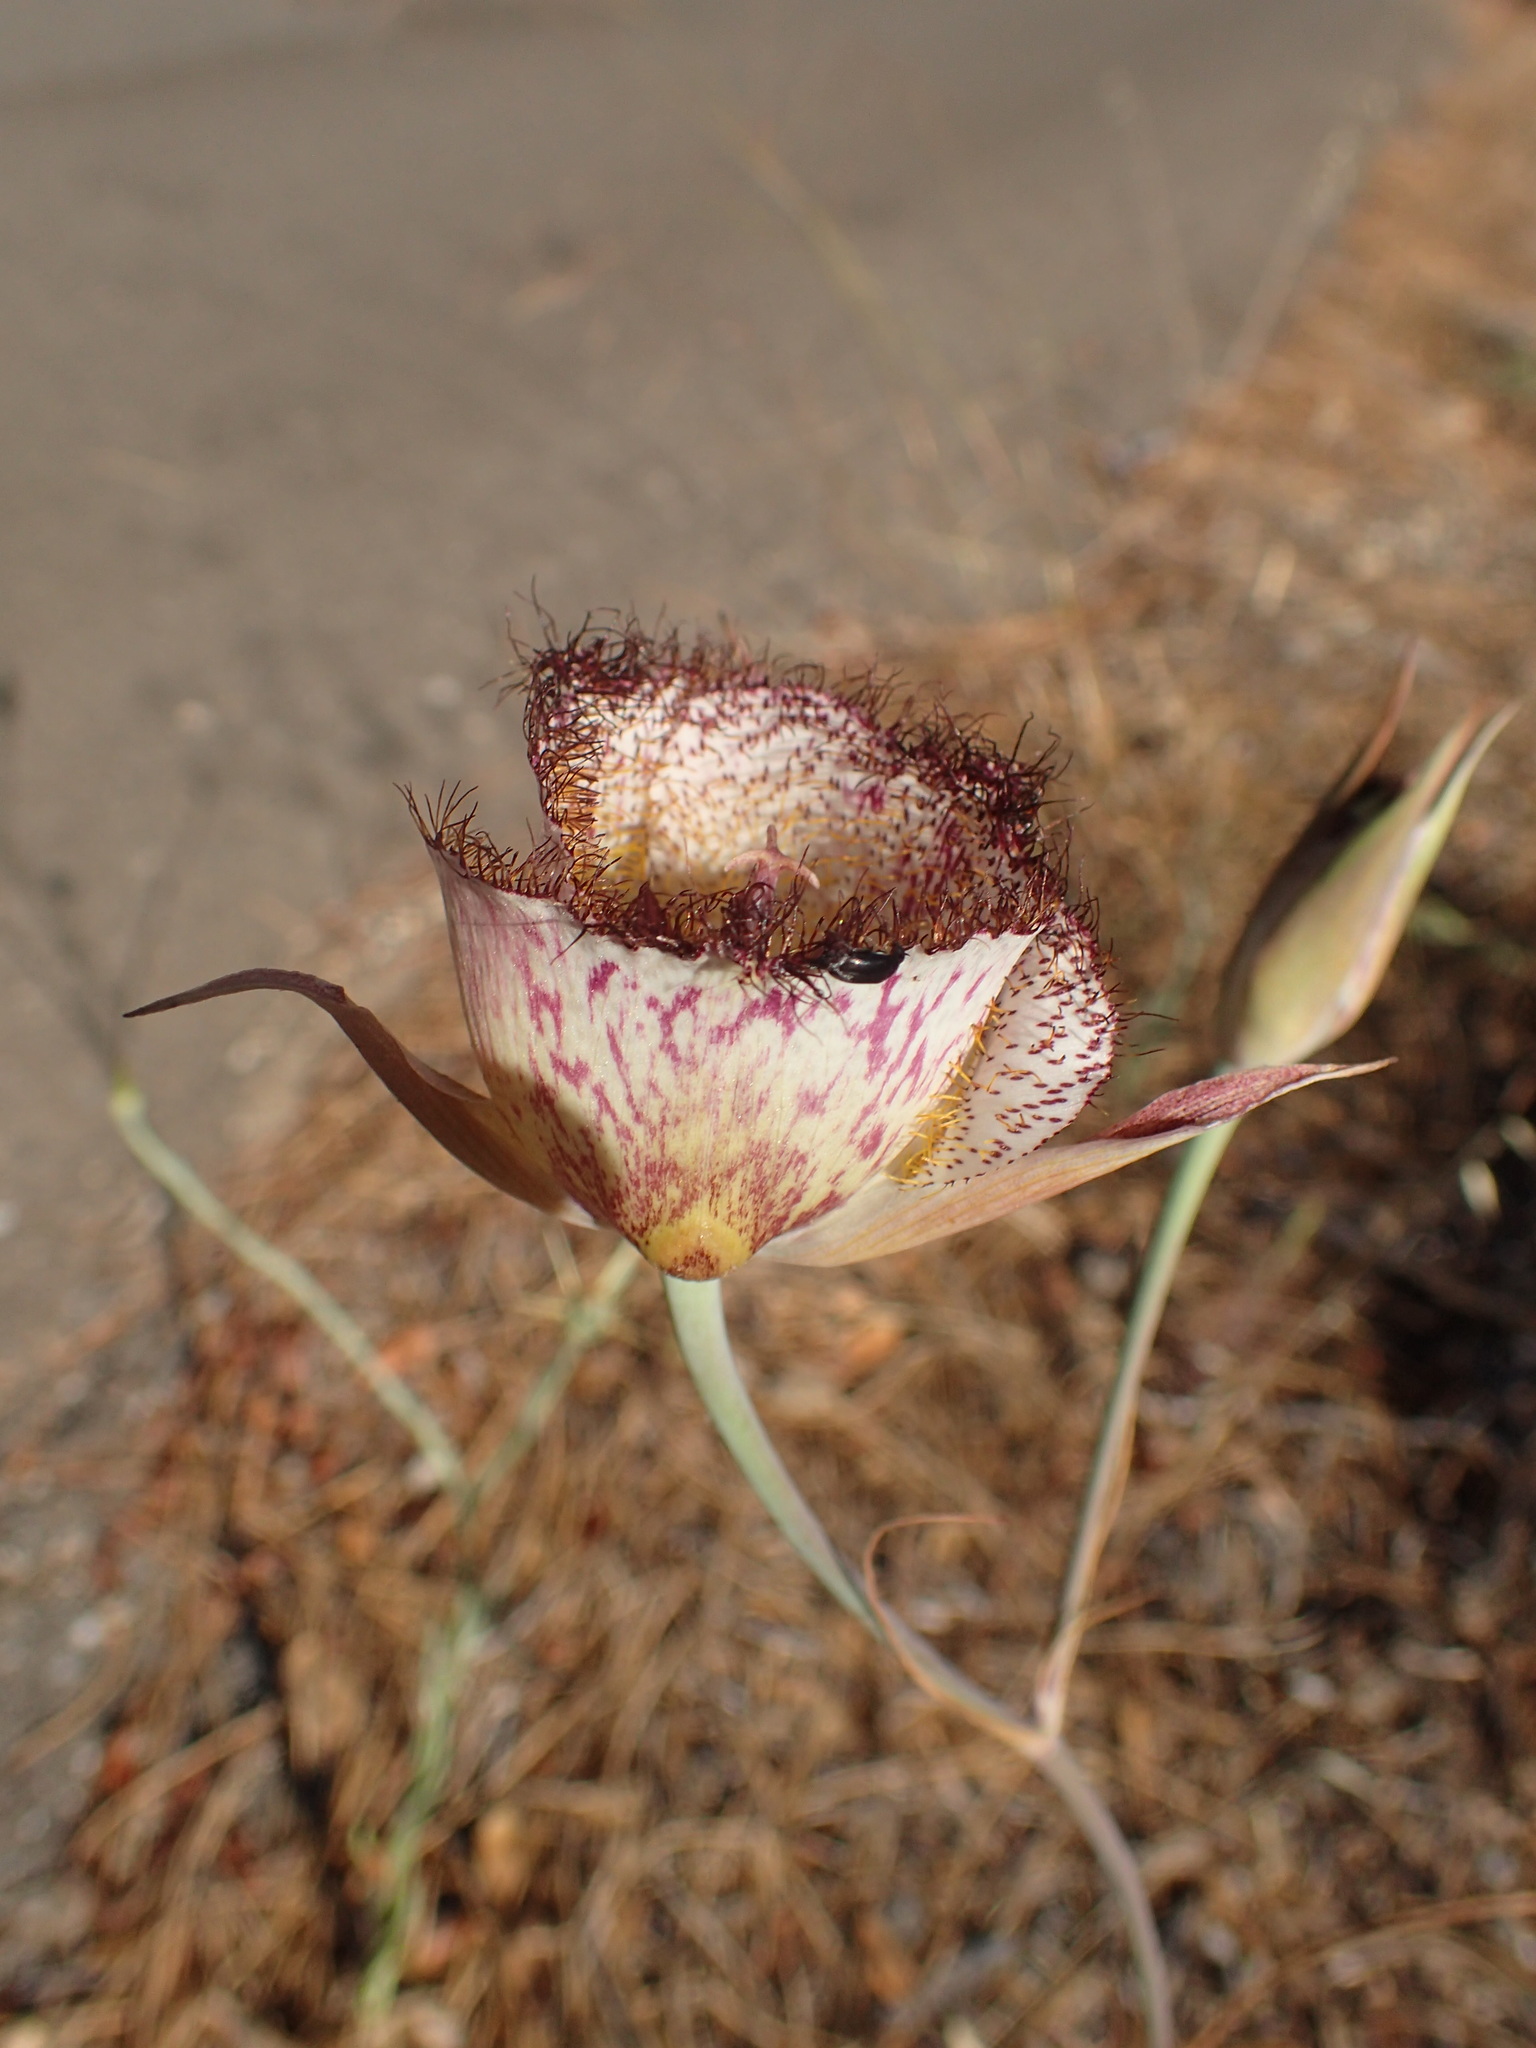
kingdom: Plantae
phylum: Tracheophyta
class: Liliopsida
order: Liliales
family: Liliaceae
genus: Calochortus
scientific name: Calochortus fimbriatus
